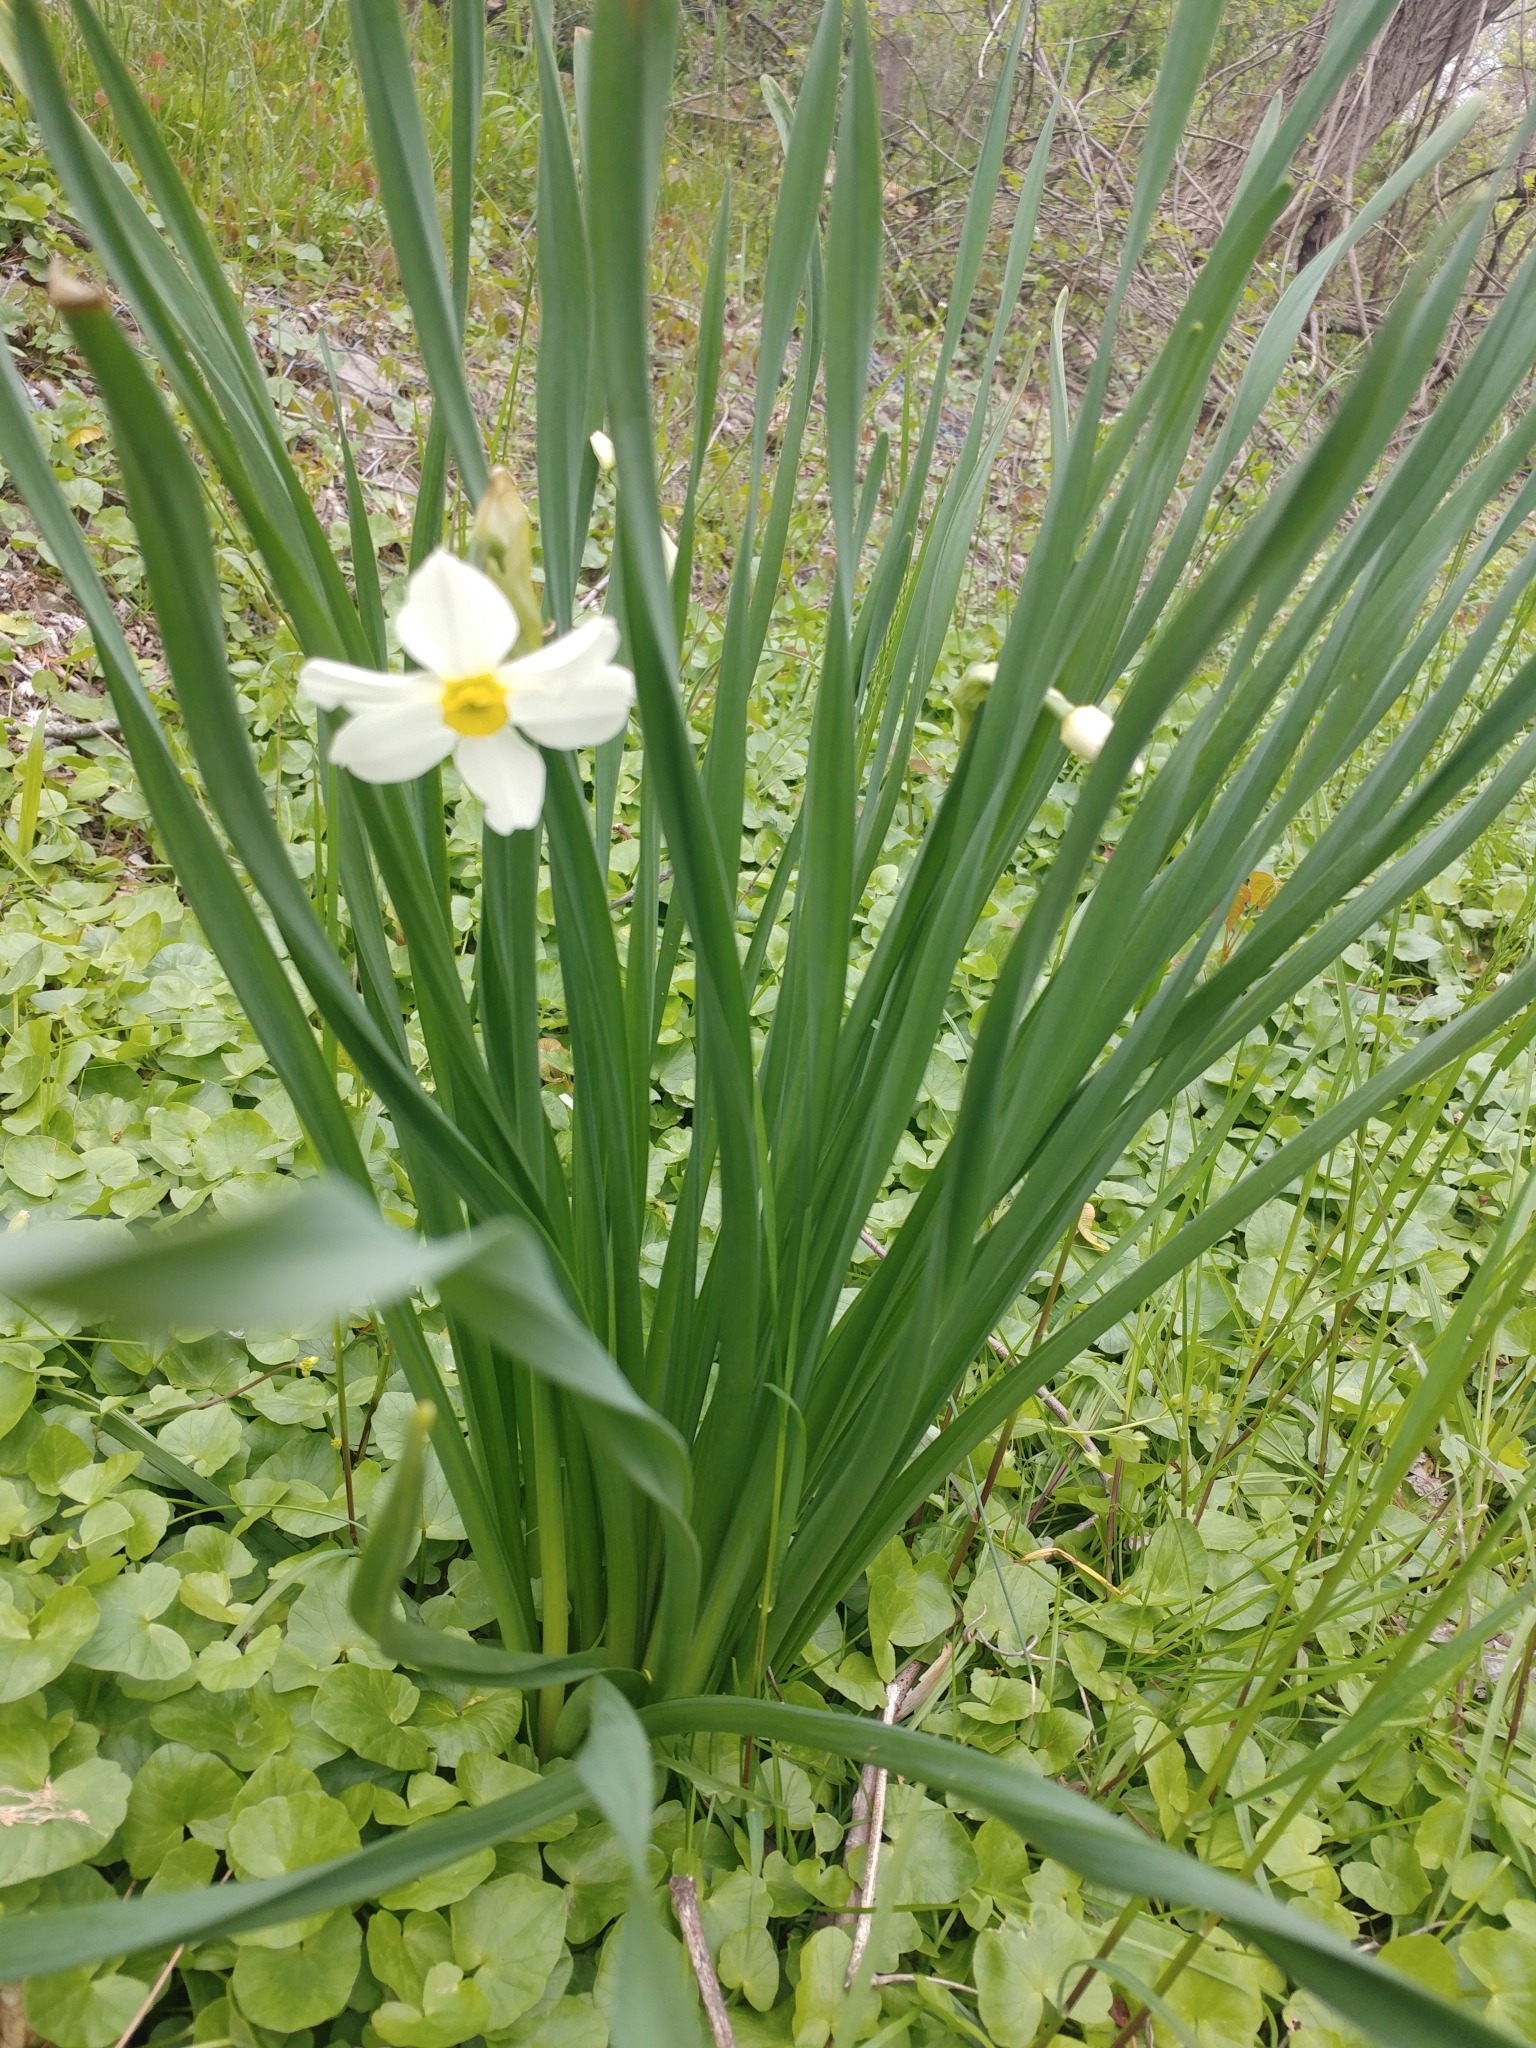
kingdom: Plantae
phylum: Tracheophyta
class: Liliopsida
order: Asparagales
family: Amaryllidaceae
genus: Narcissus
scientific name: Narcissus medioluteus
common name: Primrose-peerless
